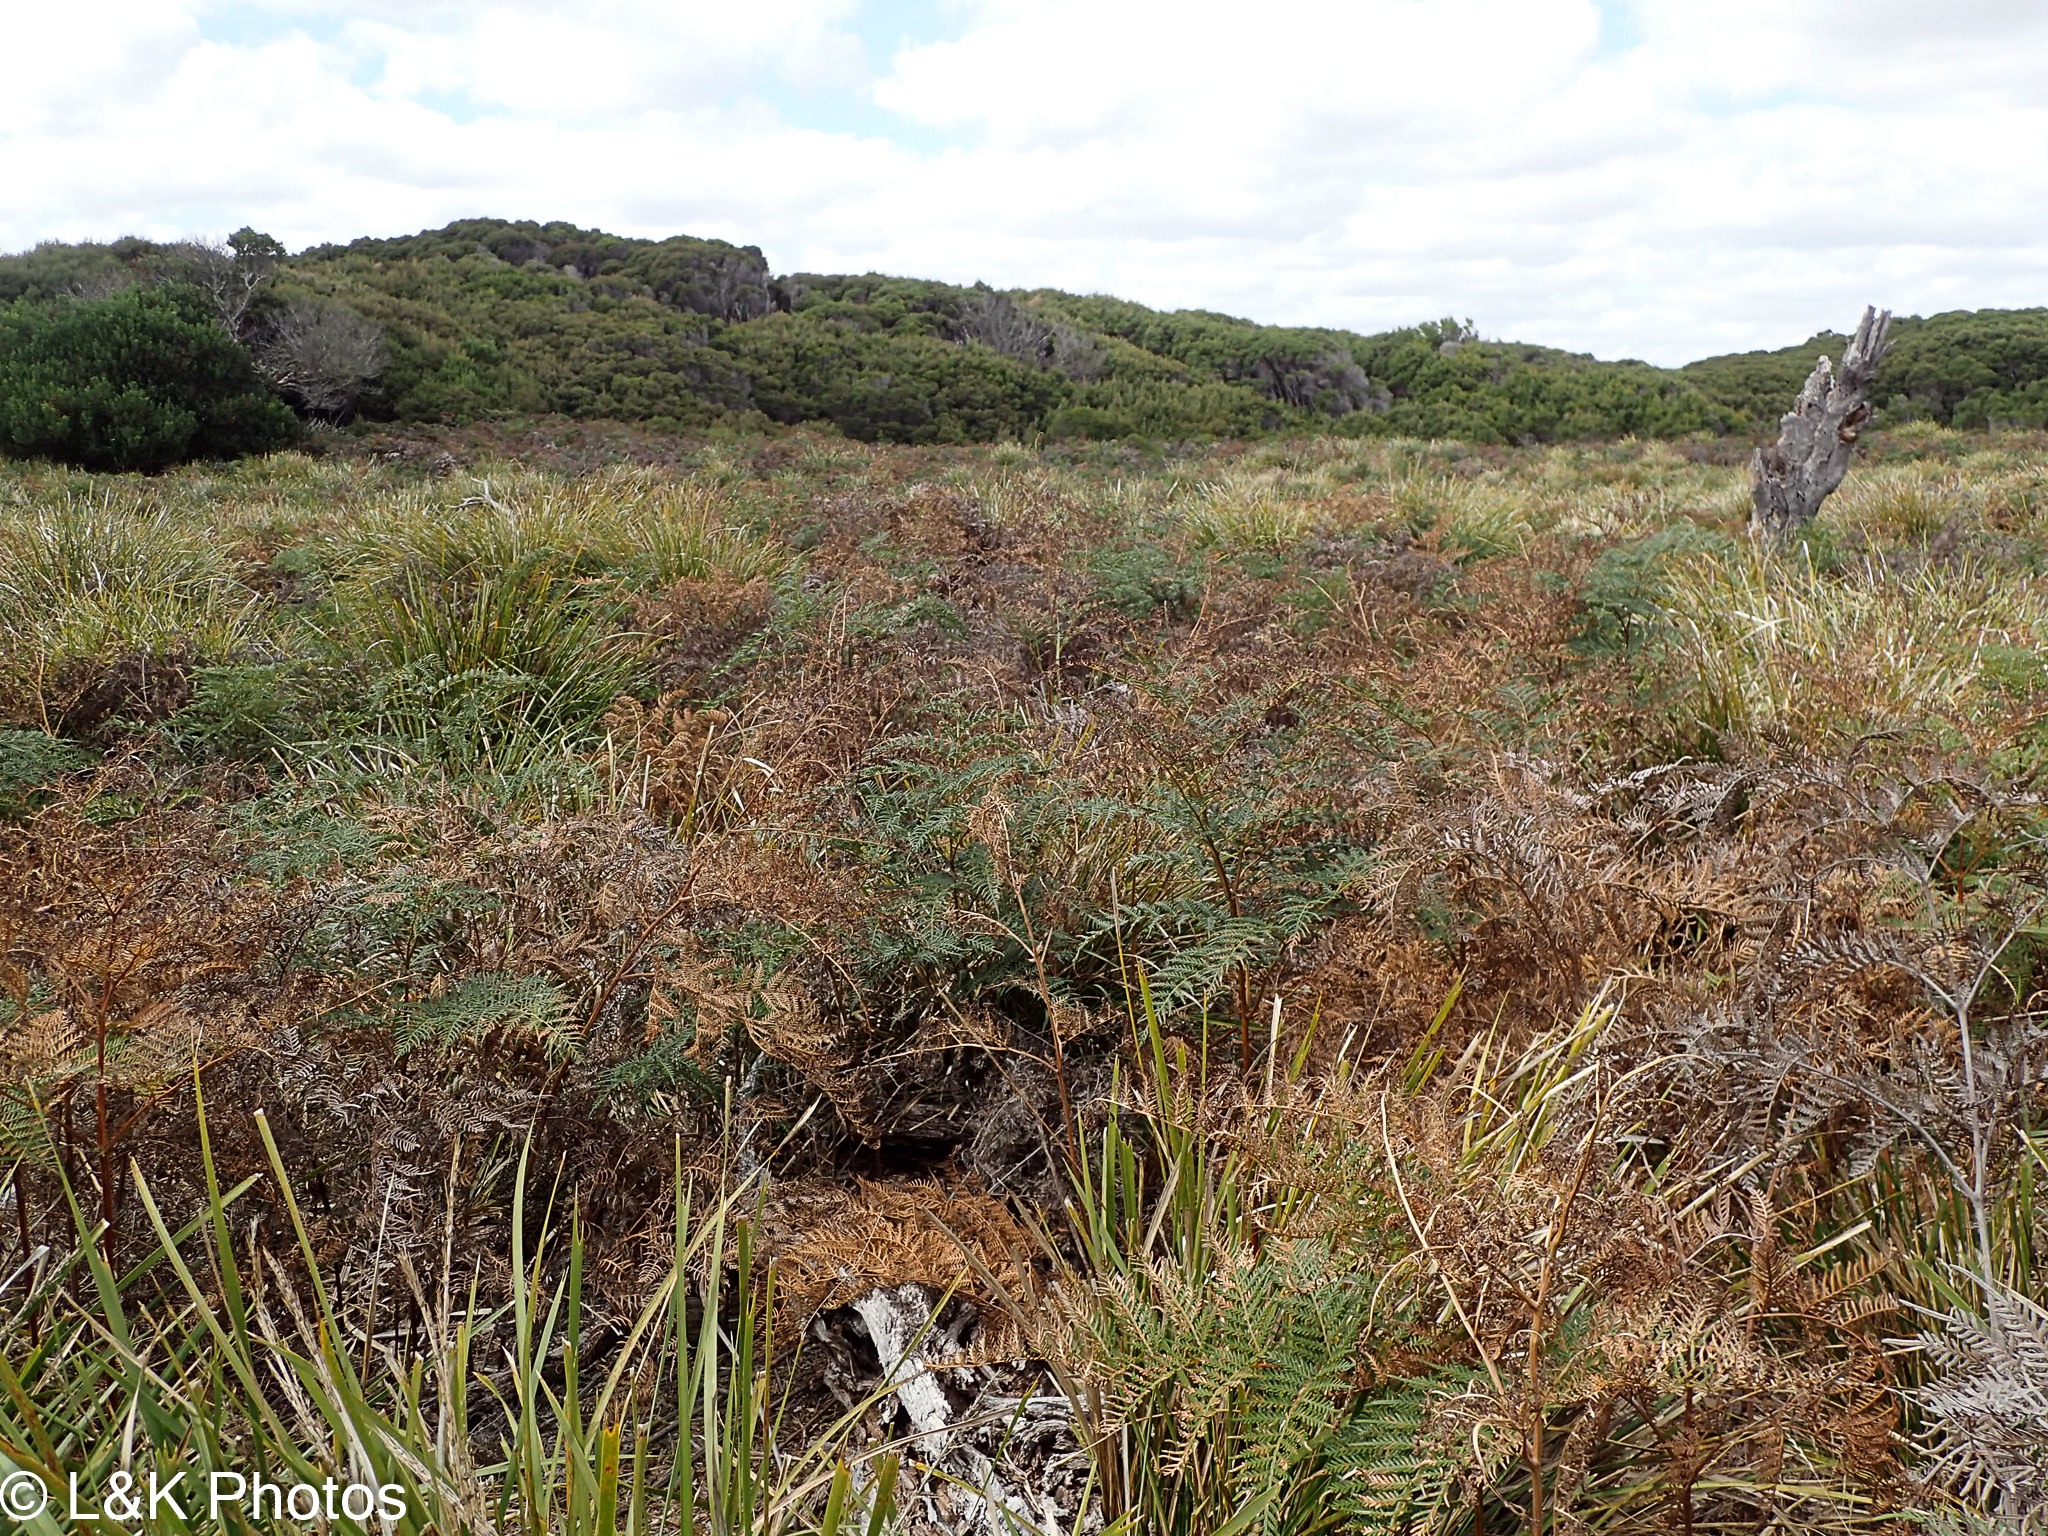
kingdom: Plantae
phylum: Tracheophyta
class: Polypodiopsida
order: Polypodiales
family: Dennstaedtiaceae
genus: Pteridium
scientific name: Pteridium esculentum
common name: Bracken fern
